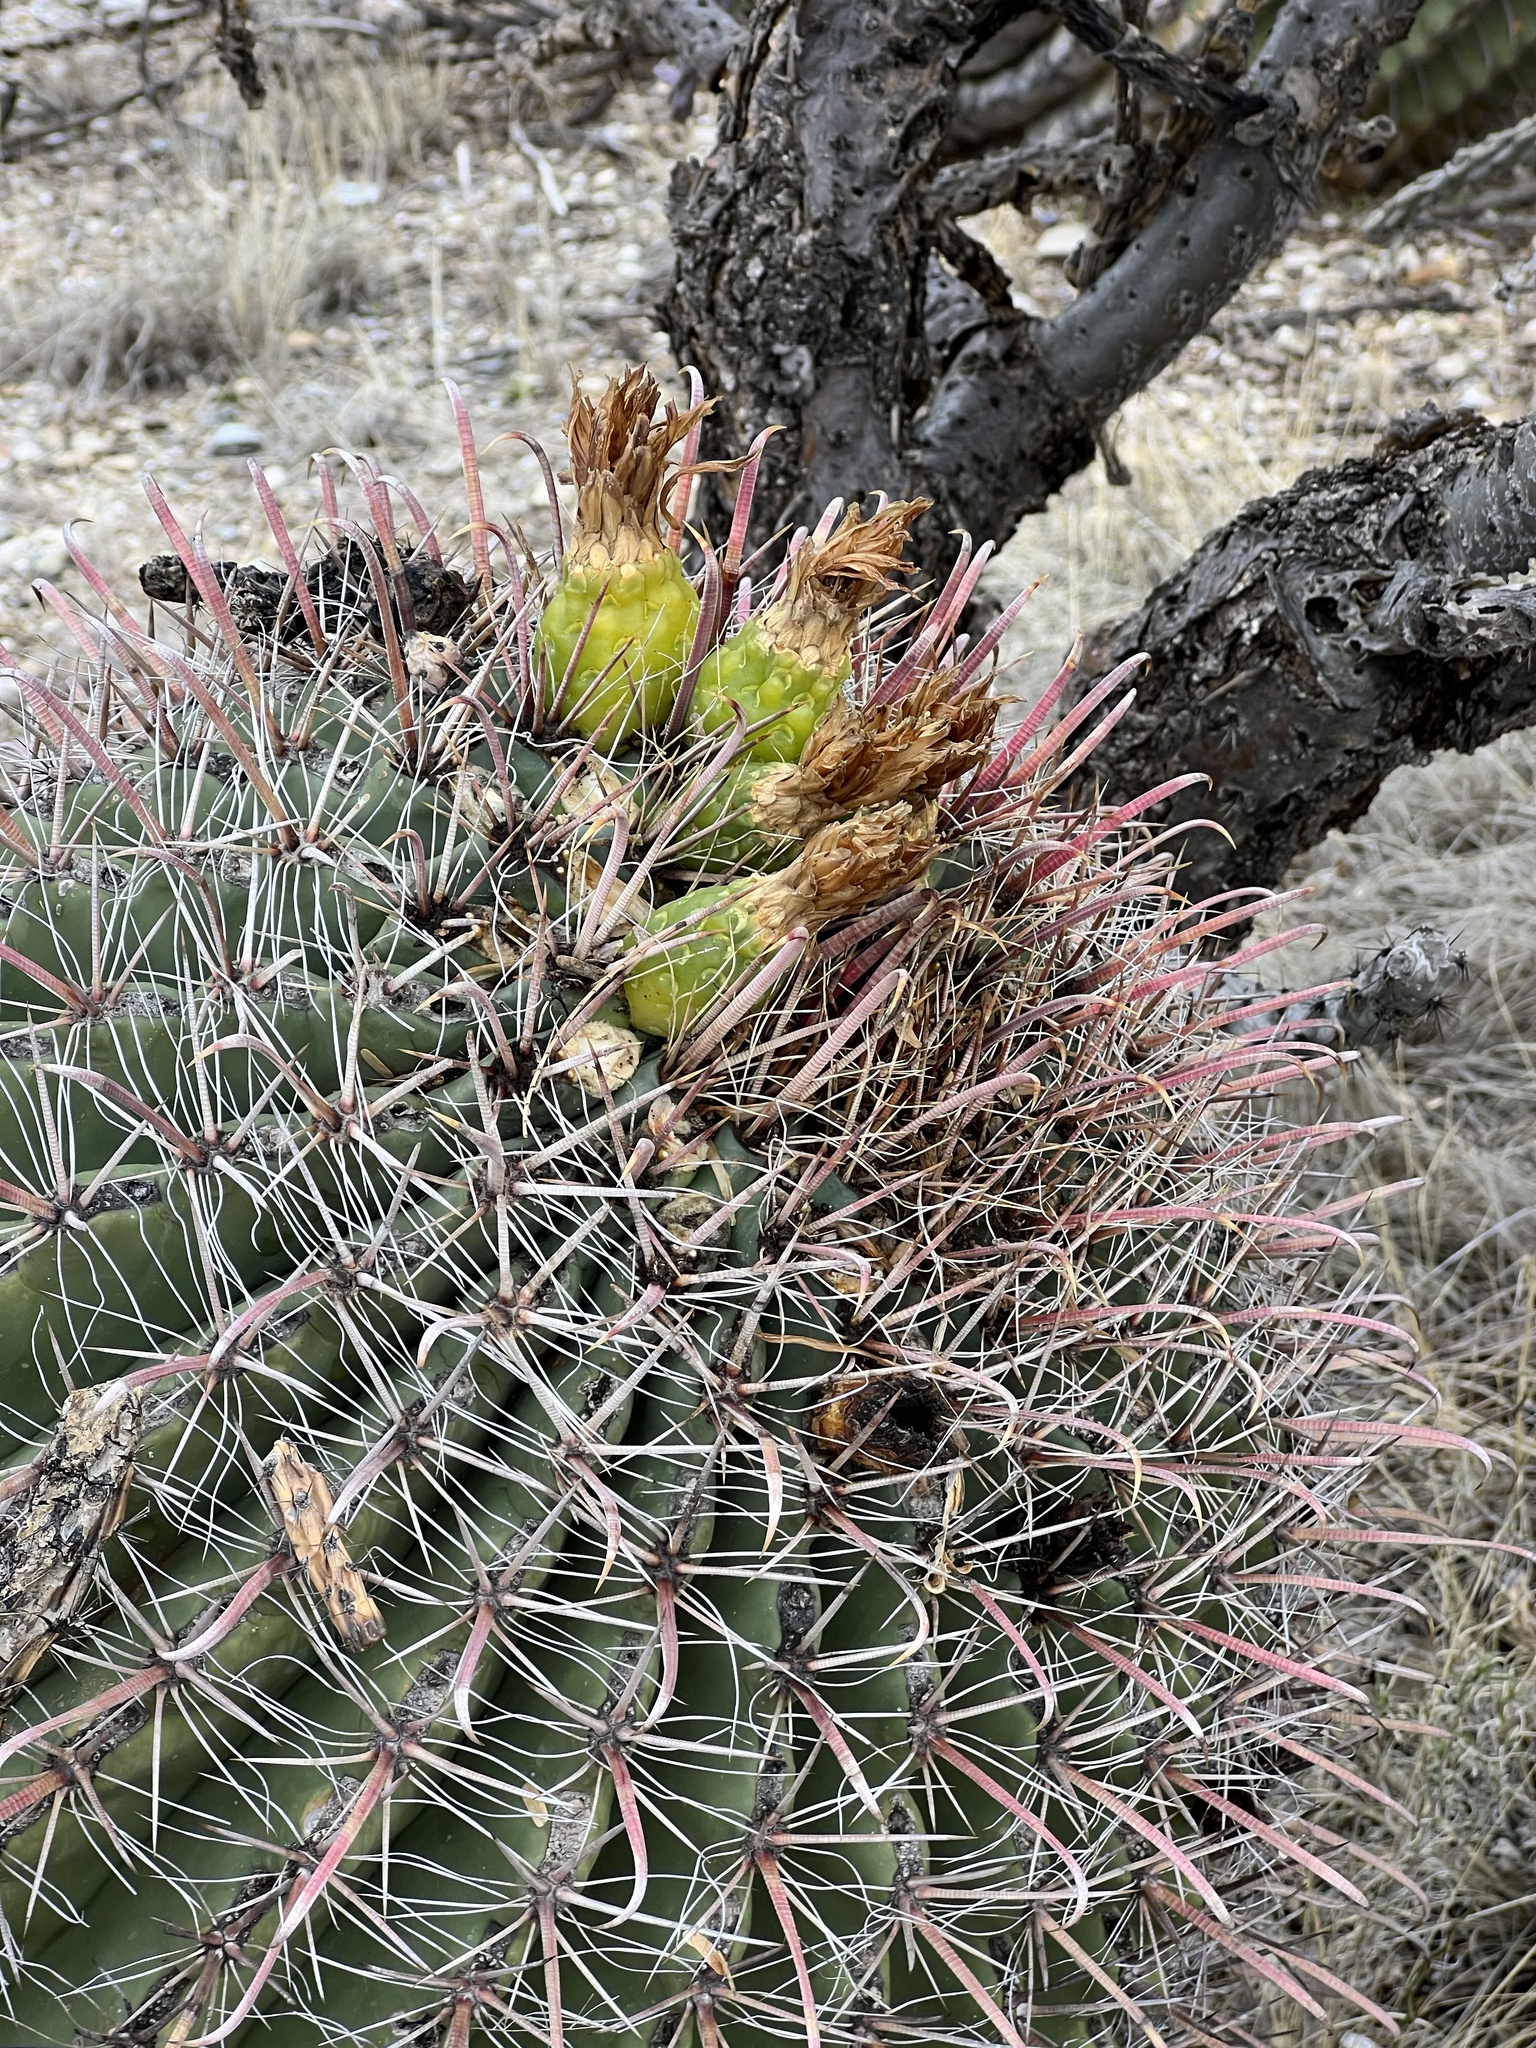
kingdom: Plantae
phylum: Tracheophyta
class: Magnoliopsida
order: Caryophyllales
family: Cactaceae
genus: Ferocactus
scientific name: Ferocactus wislizeni
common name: Candy barrel cactus
